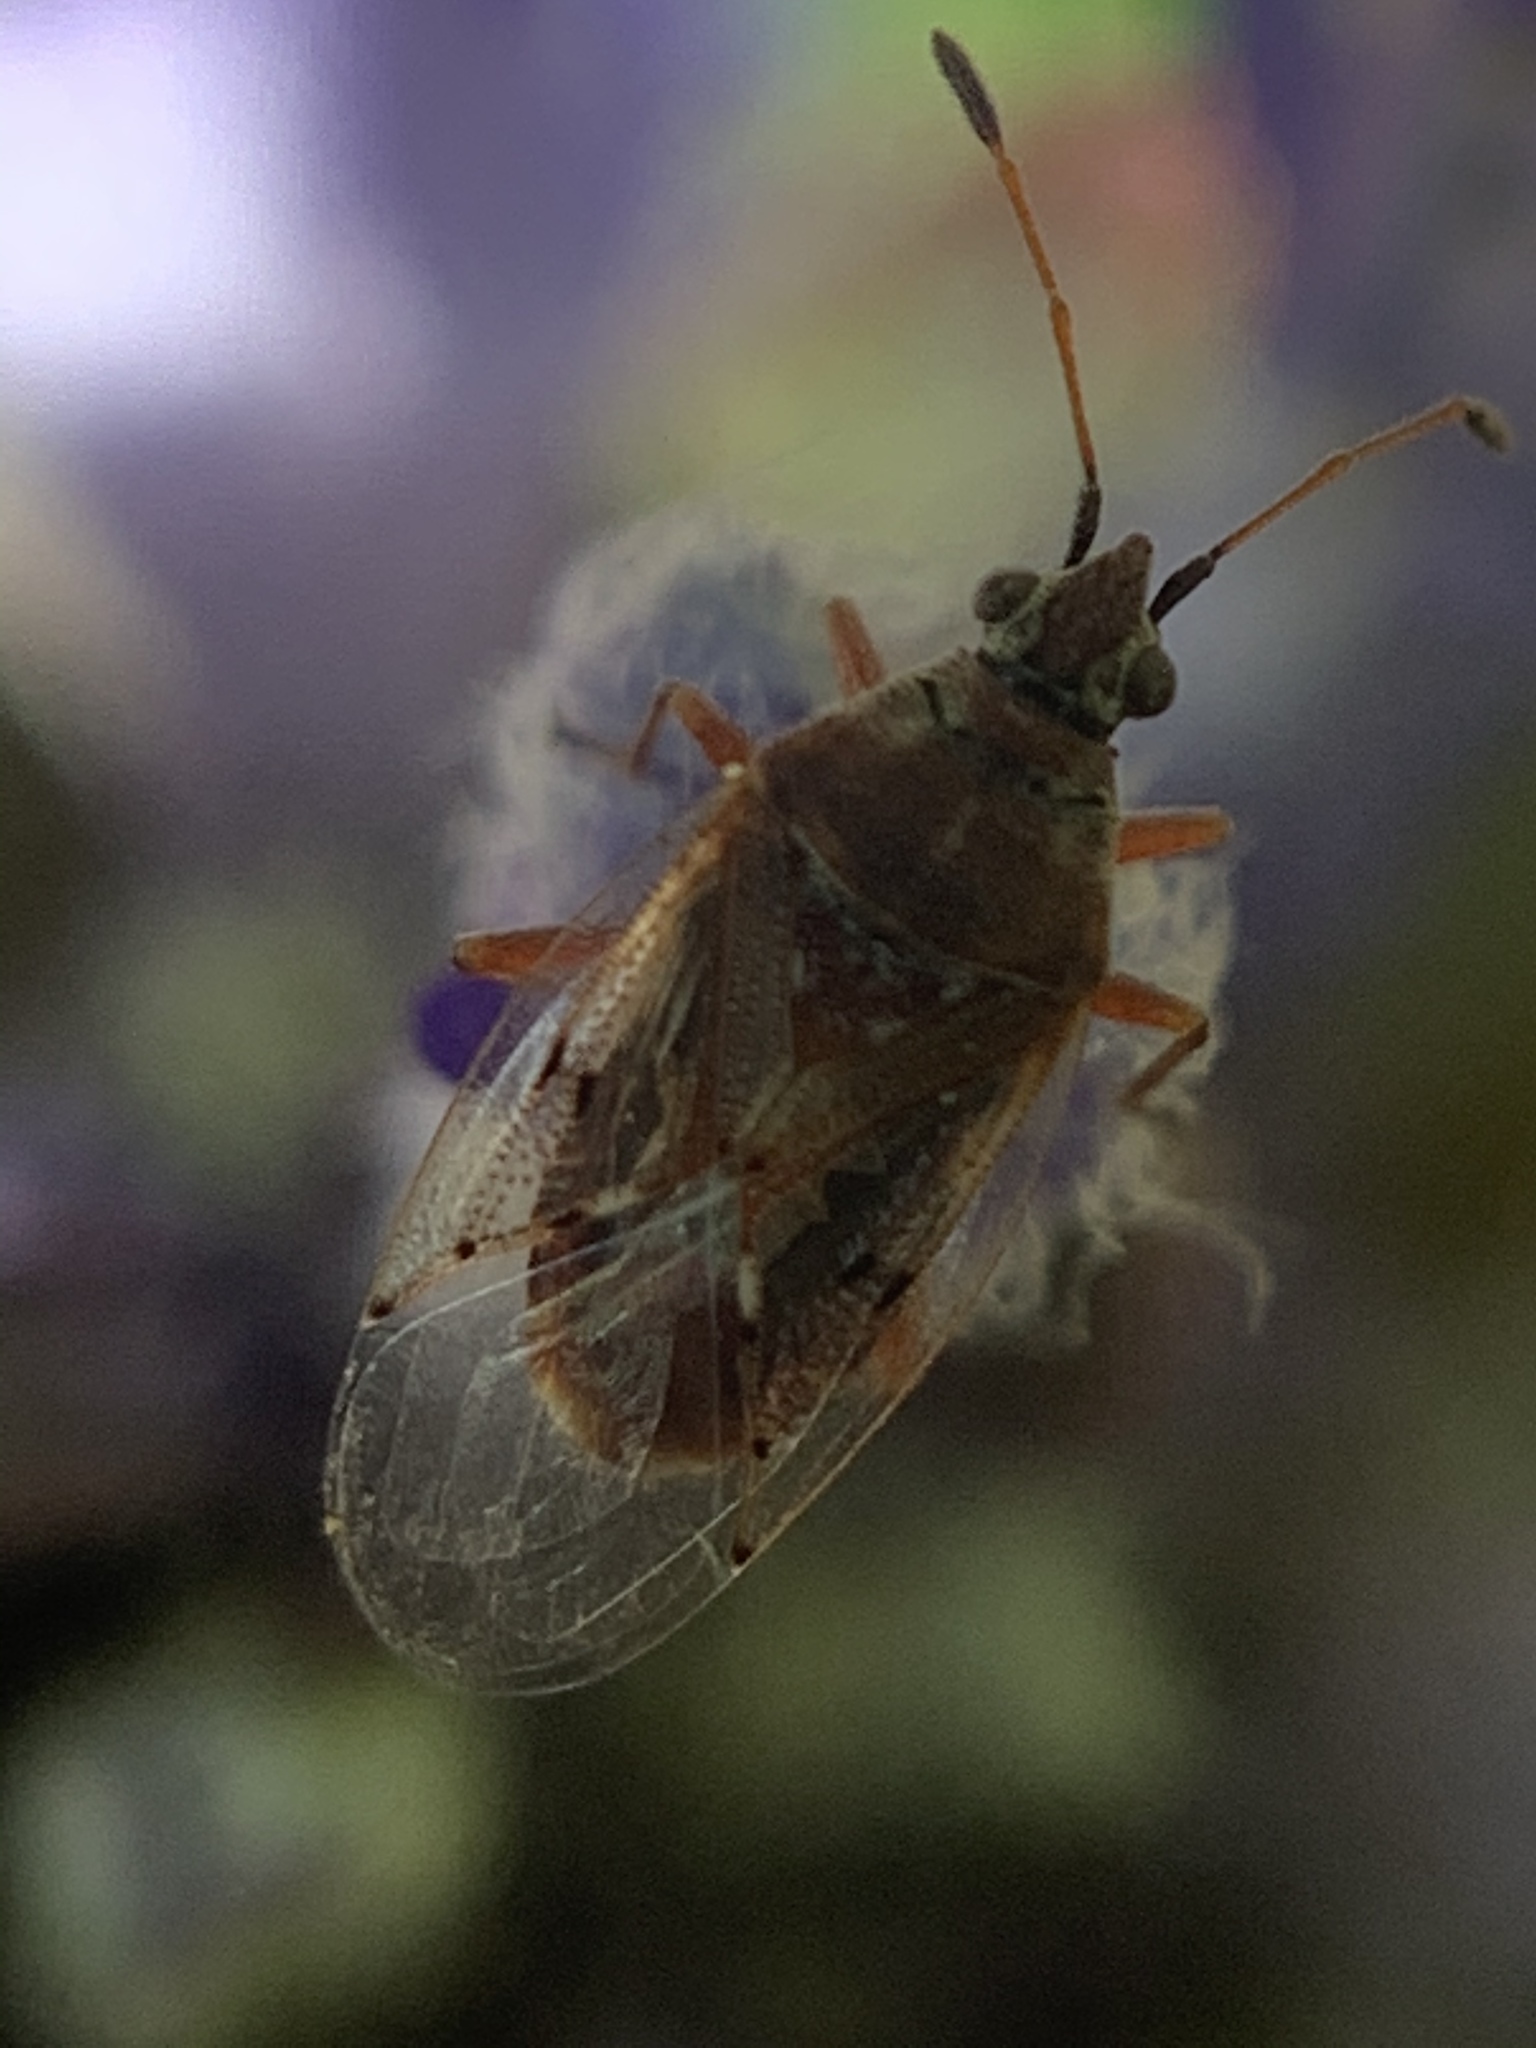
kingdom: Animalia
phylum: Arthropoda
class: Insecta
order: Hemiptera
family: Lygaeidae
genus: Kleidocerys
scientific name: Kleidocerys resedae
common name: Birch catkin bug
